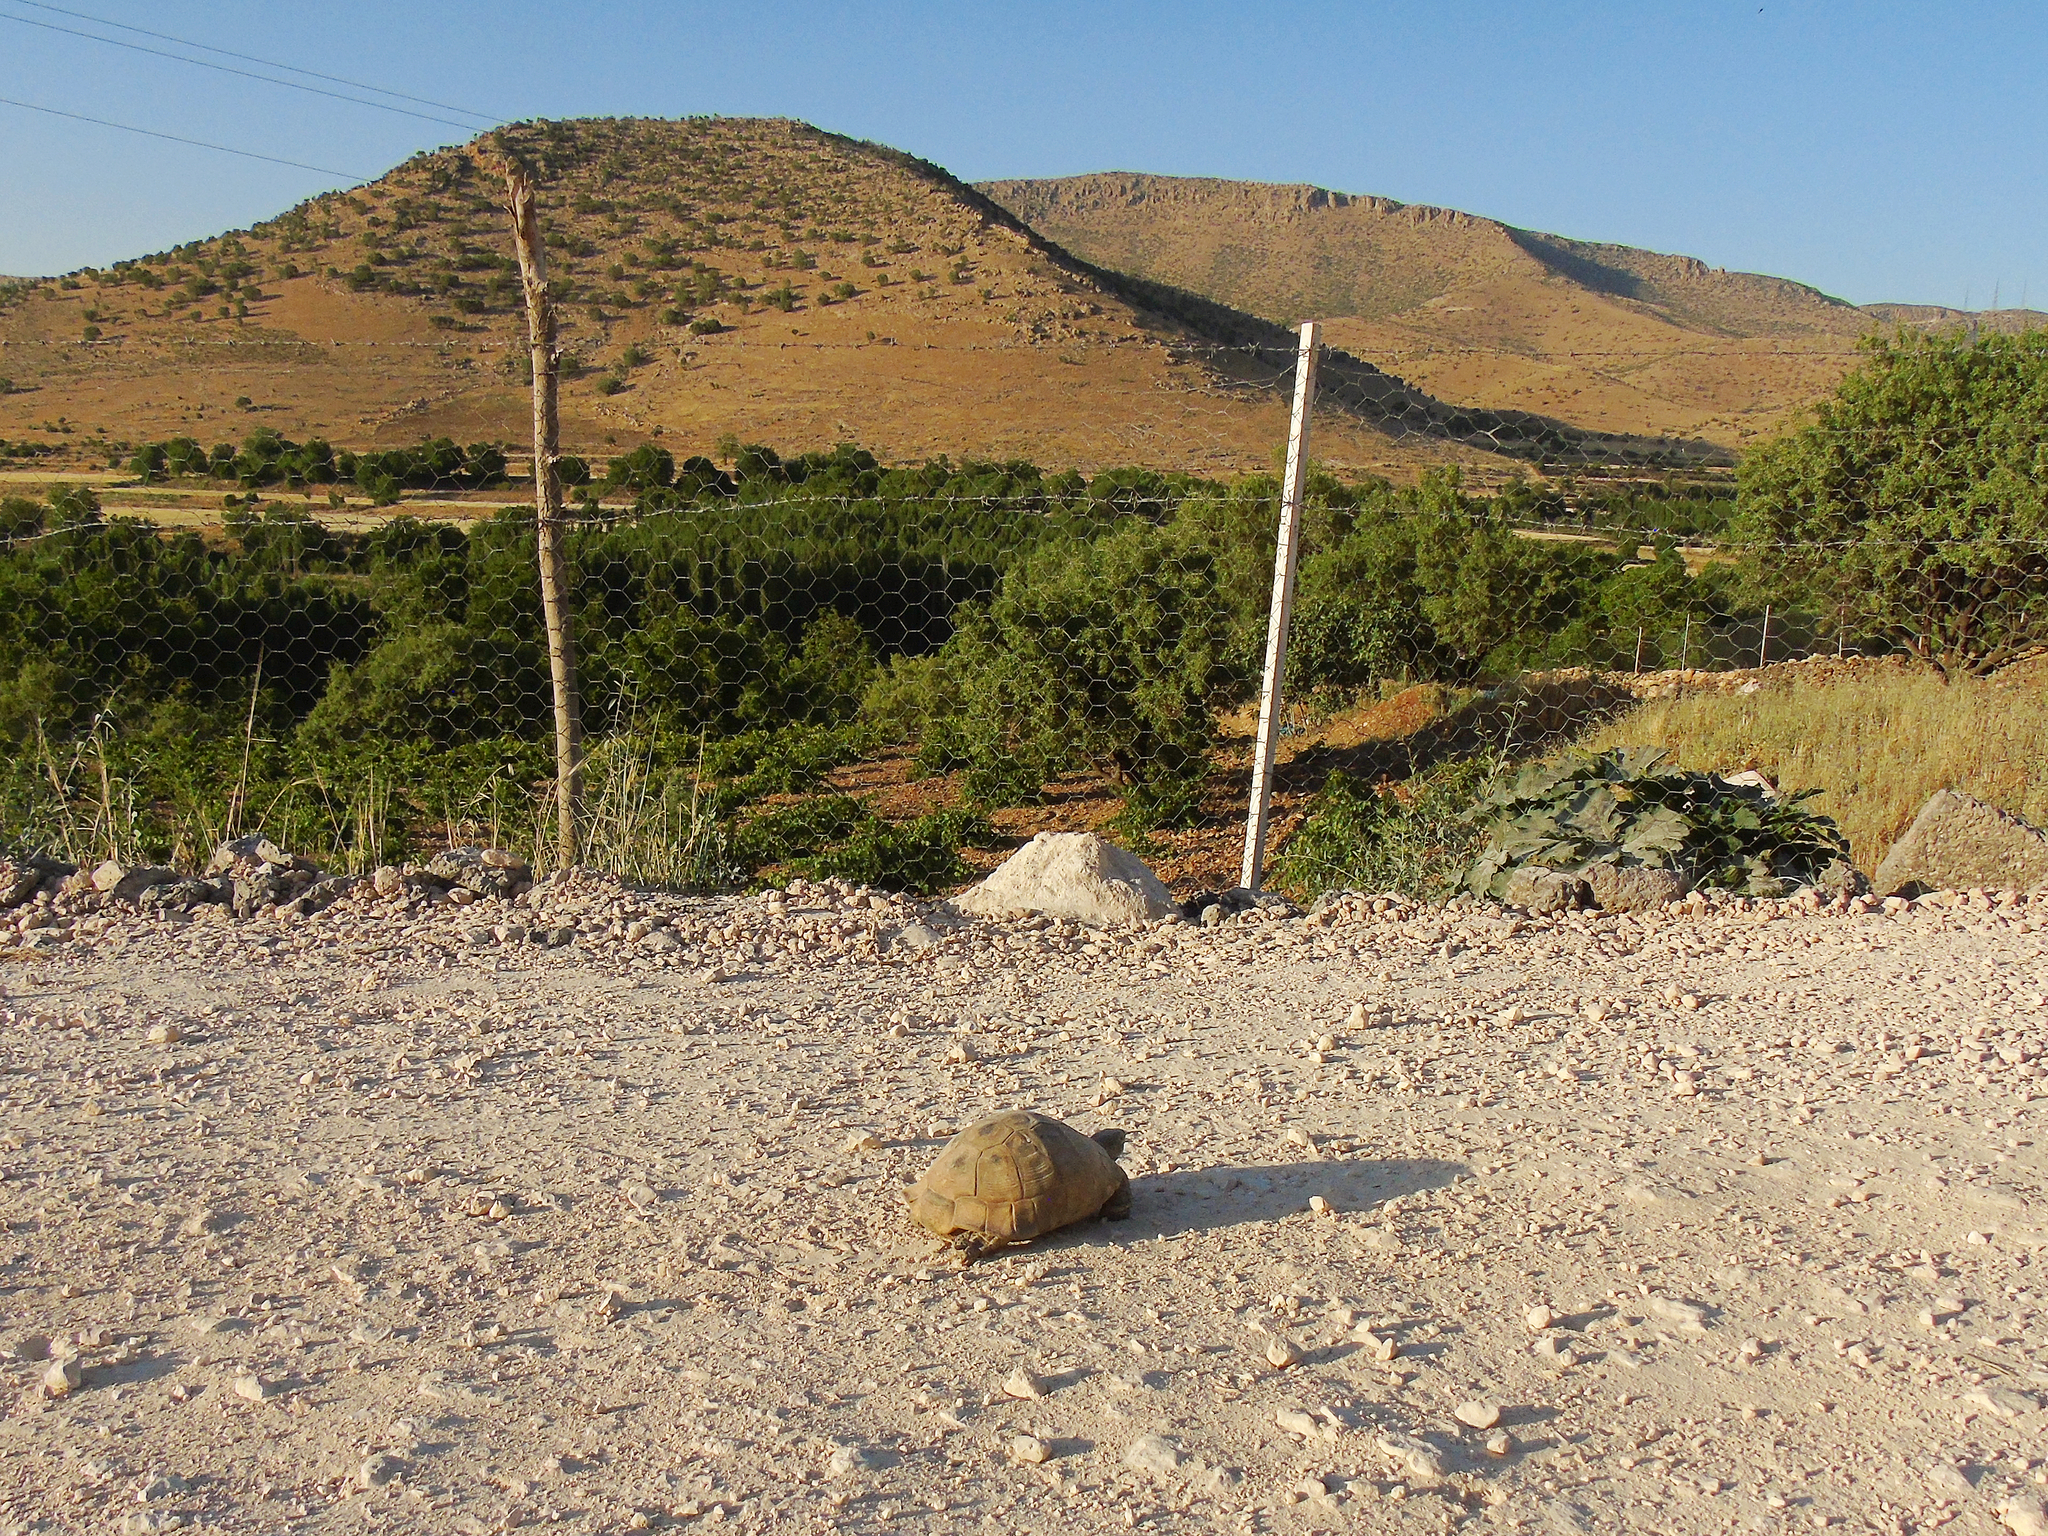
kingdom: Animalia
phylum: Chordata
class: Testudines
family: Testudinidae
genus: Testudo
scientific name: Testudo graeca
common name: Common tortoise
